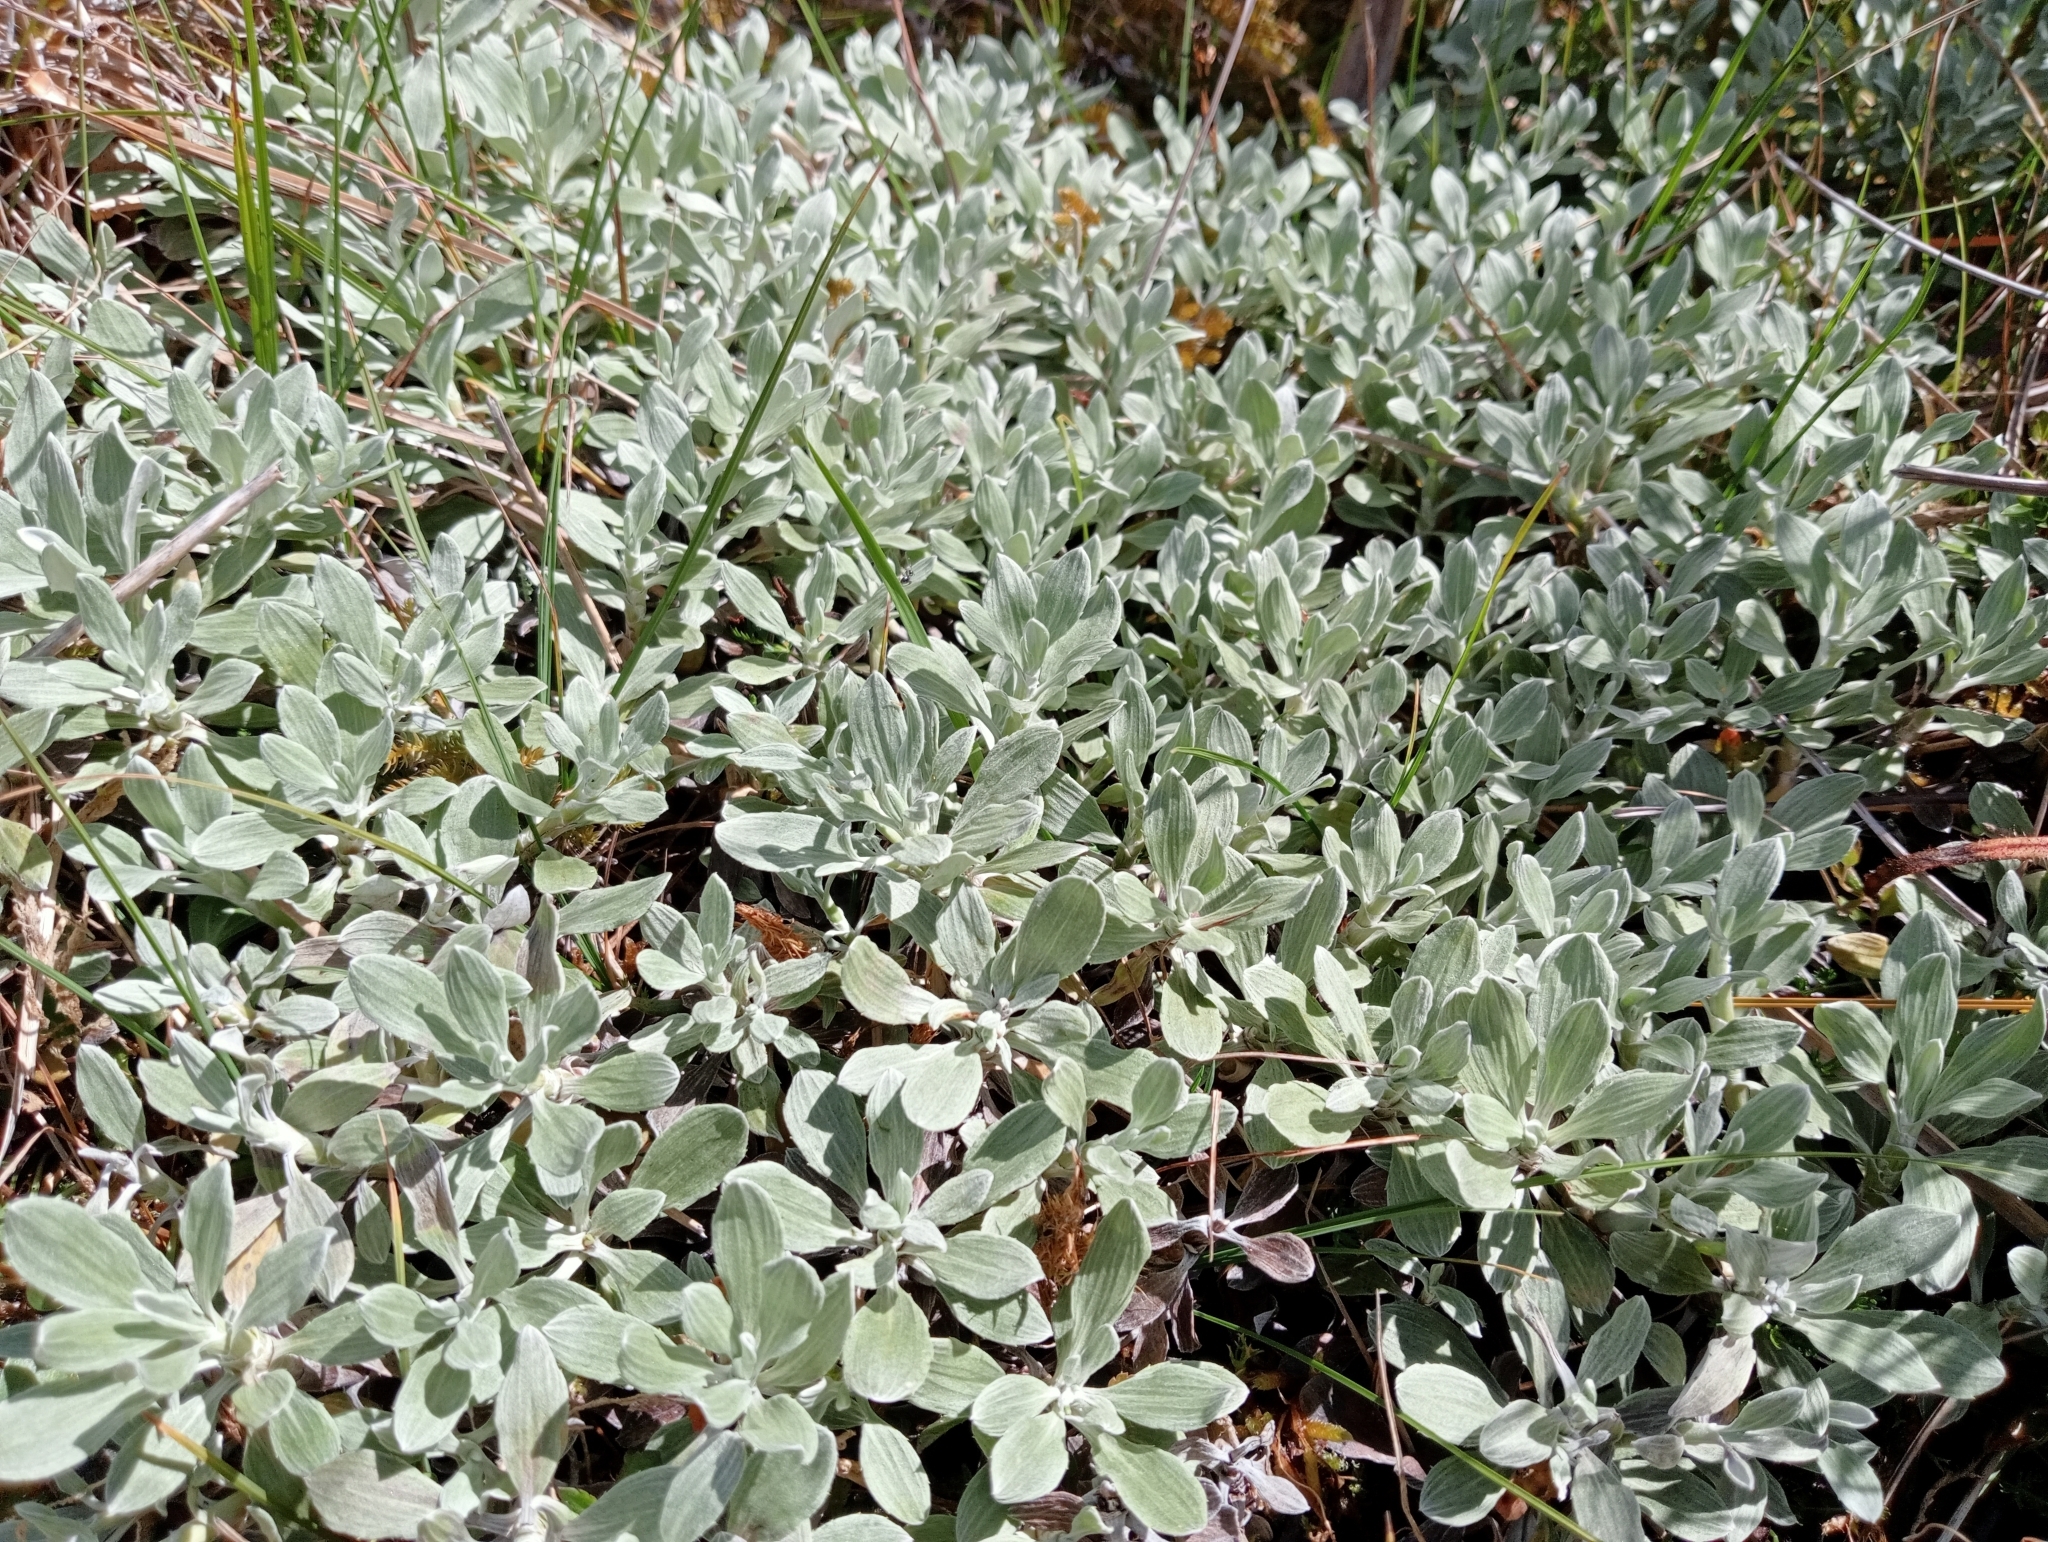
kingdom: Plantae
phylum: Tracheophyta
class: Magnoliopsida
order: Asterales
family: Asteraceae
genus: Celmisia
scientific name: Celmisia discolor
